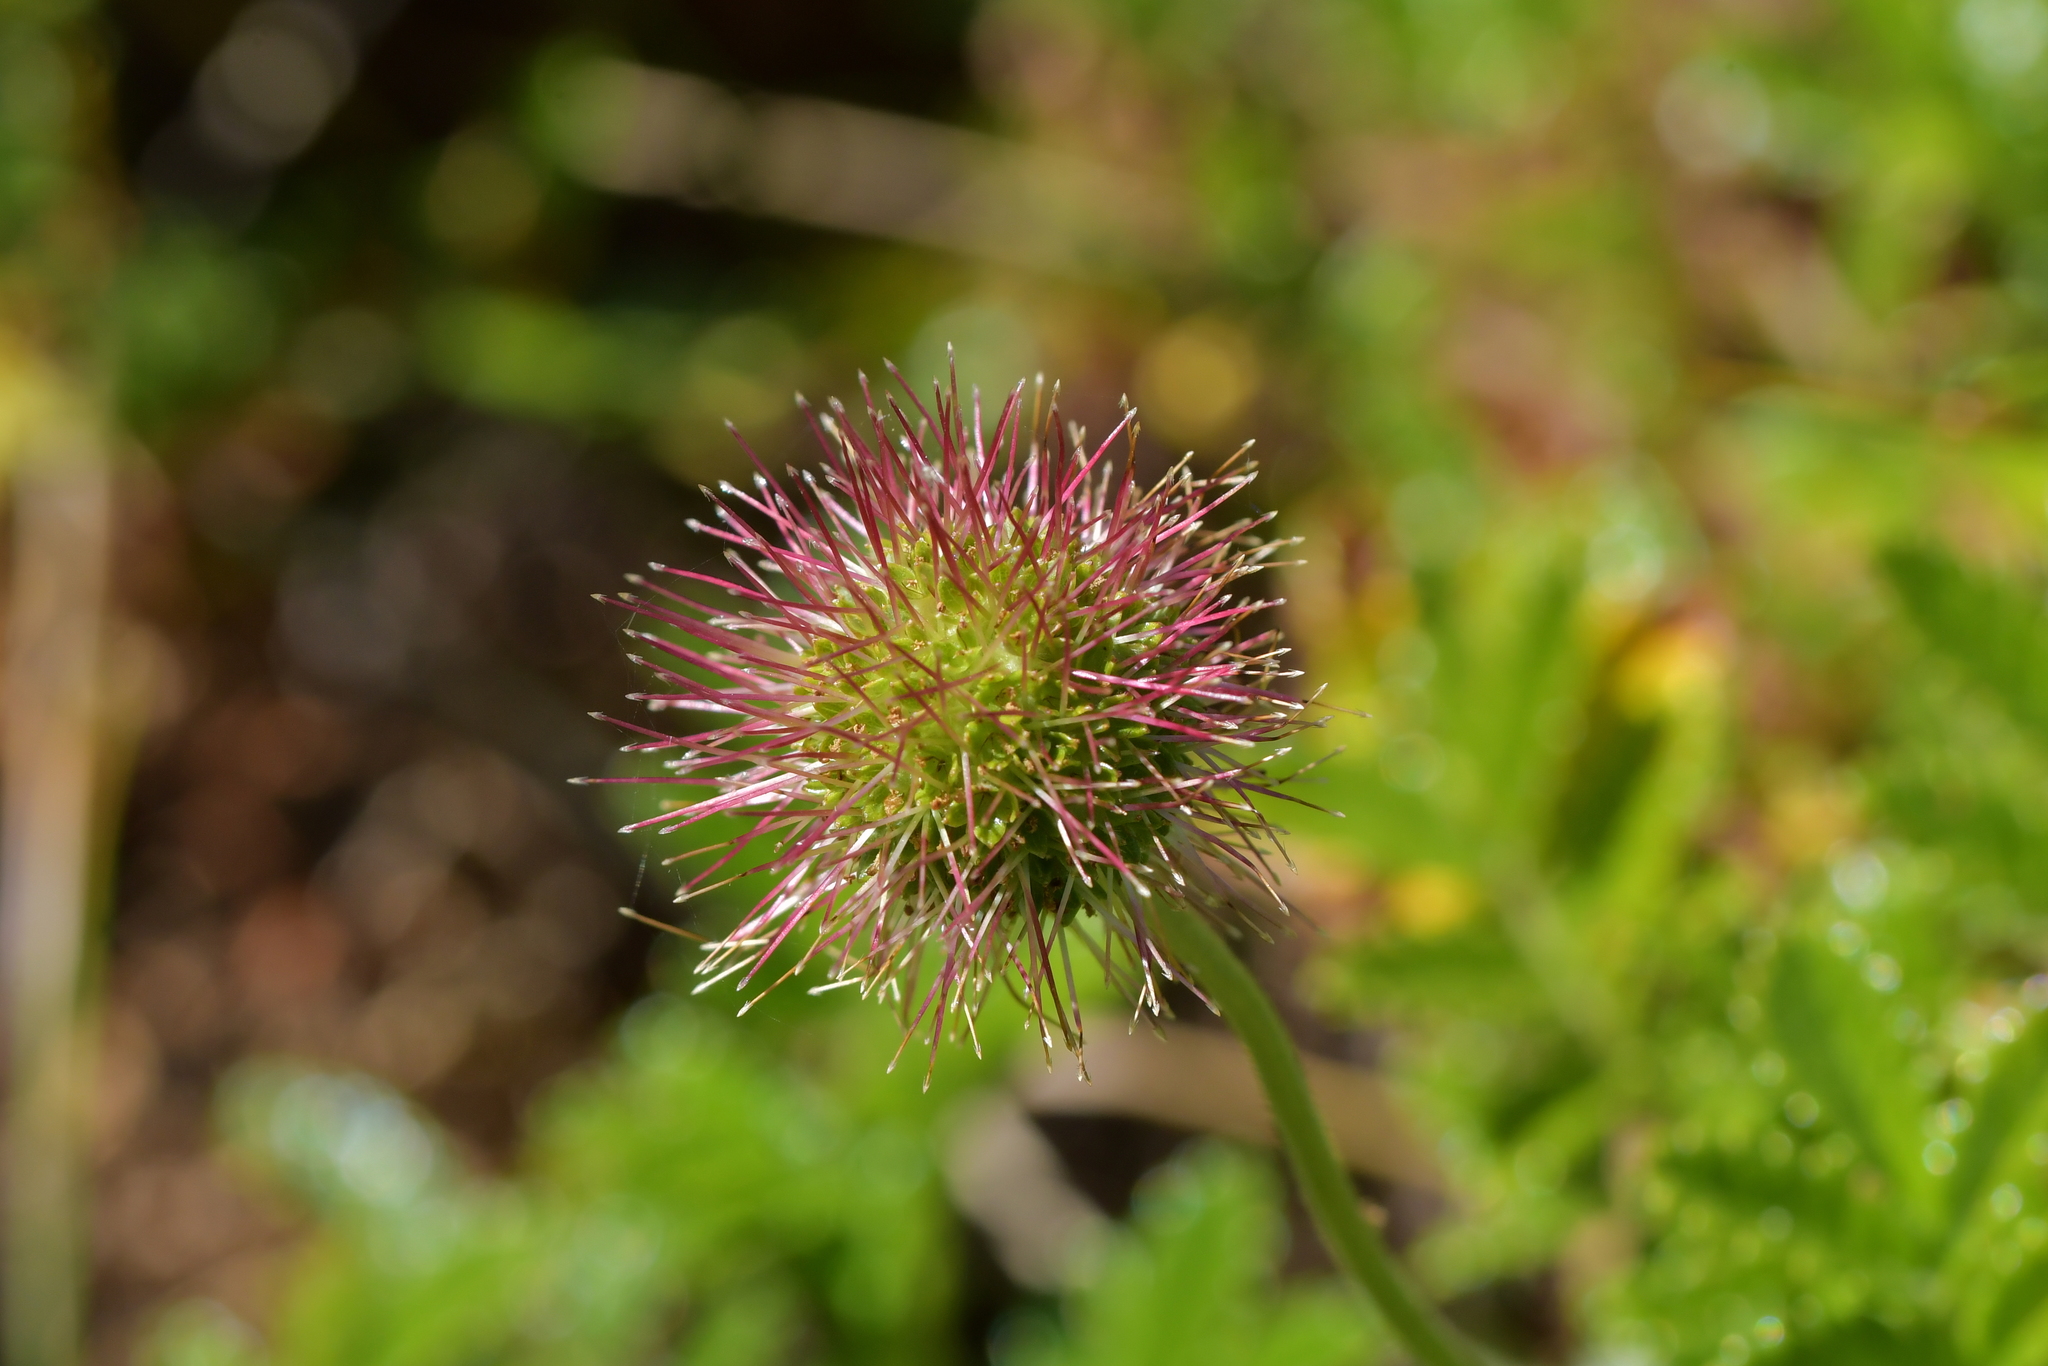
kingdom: Plantae
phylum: Tracheophyta
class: Magnoliopsida
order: Rosales
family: Rosaceae
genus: Acaena
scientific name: Acaena novae-zelandiae
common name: Pirri-pirri-bur
